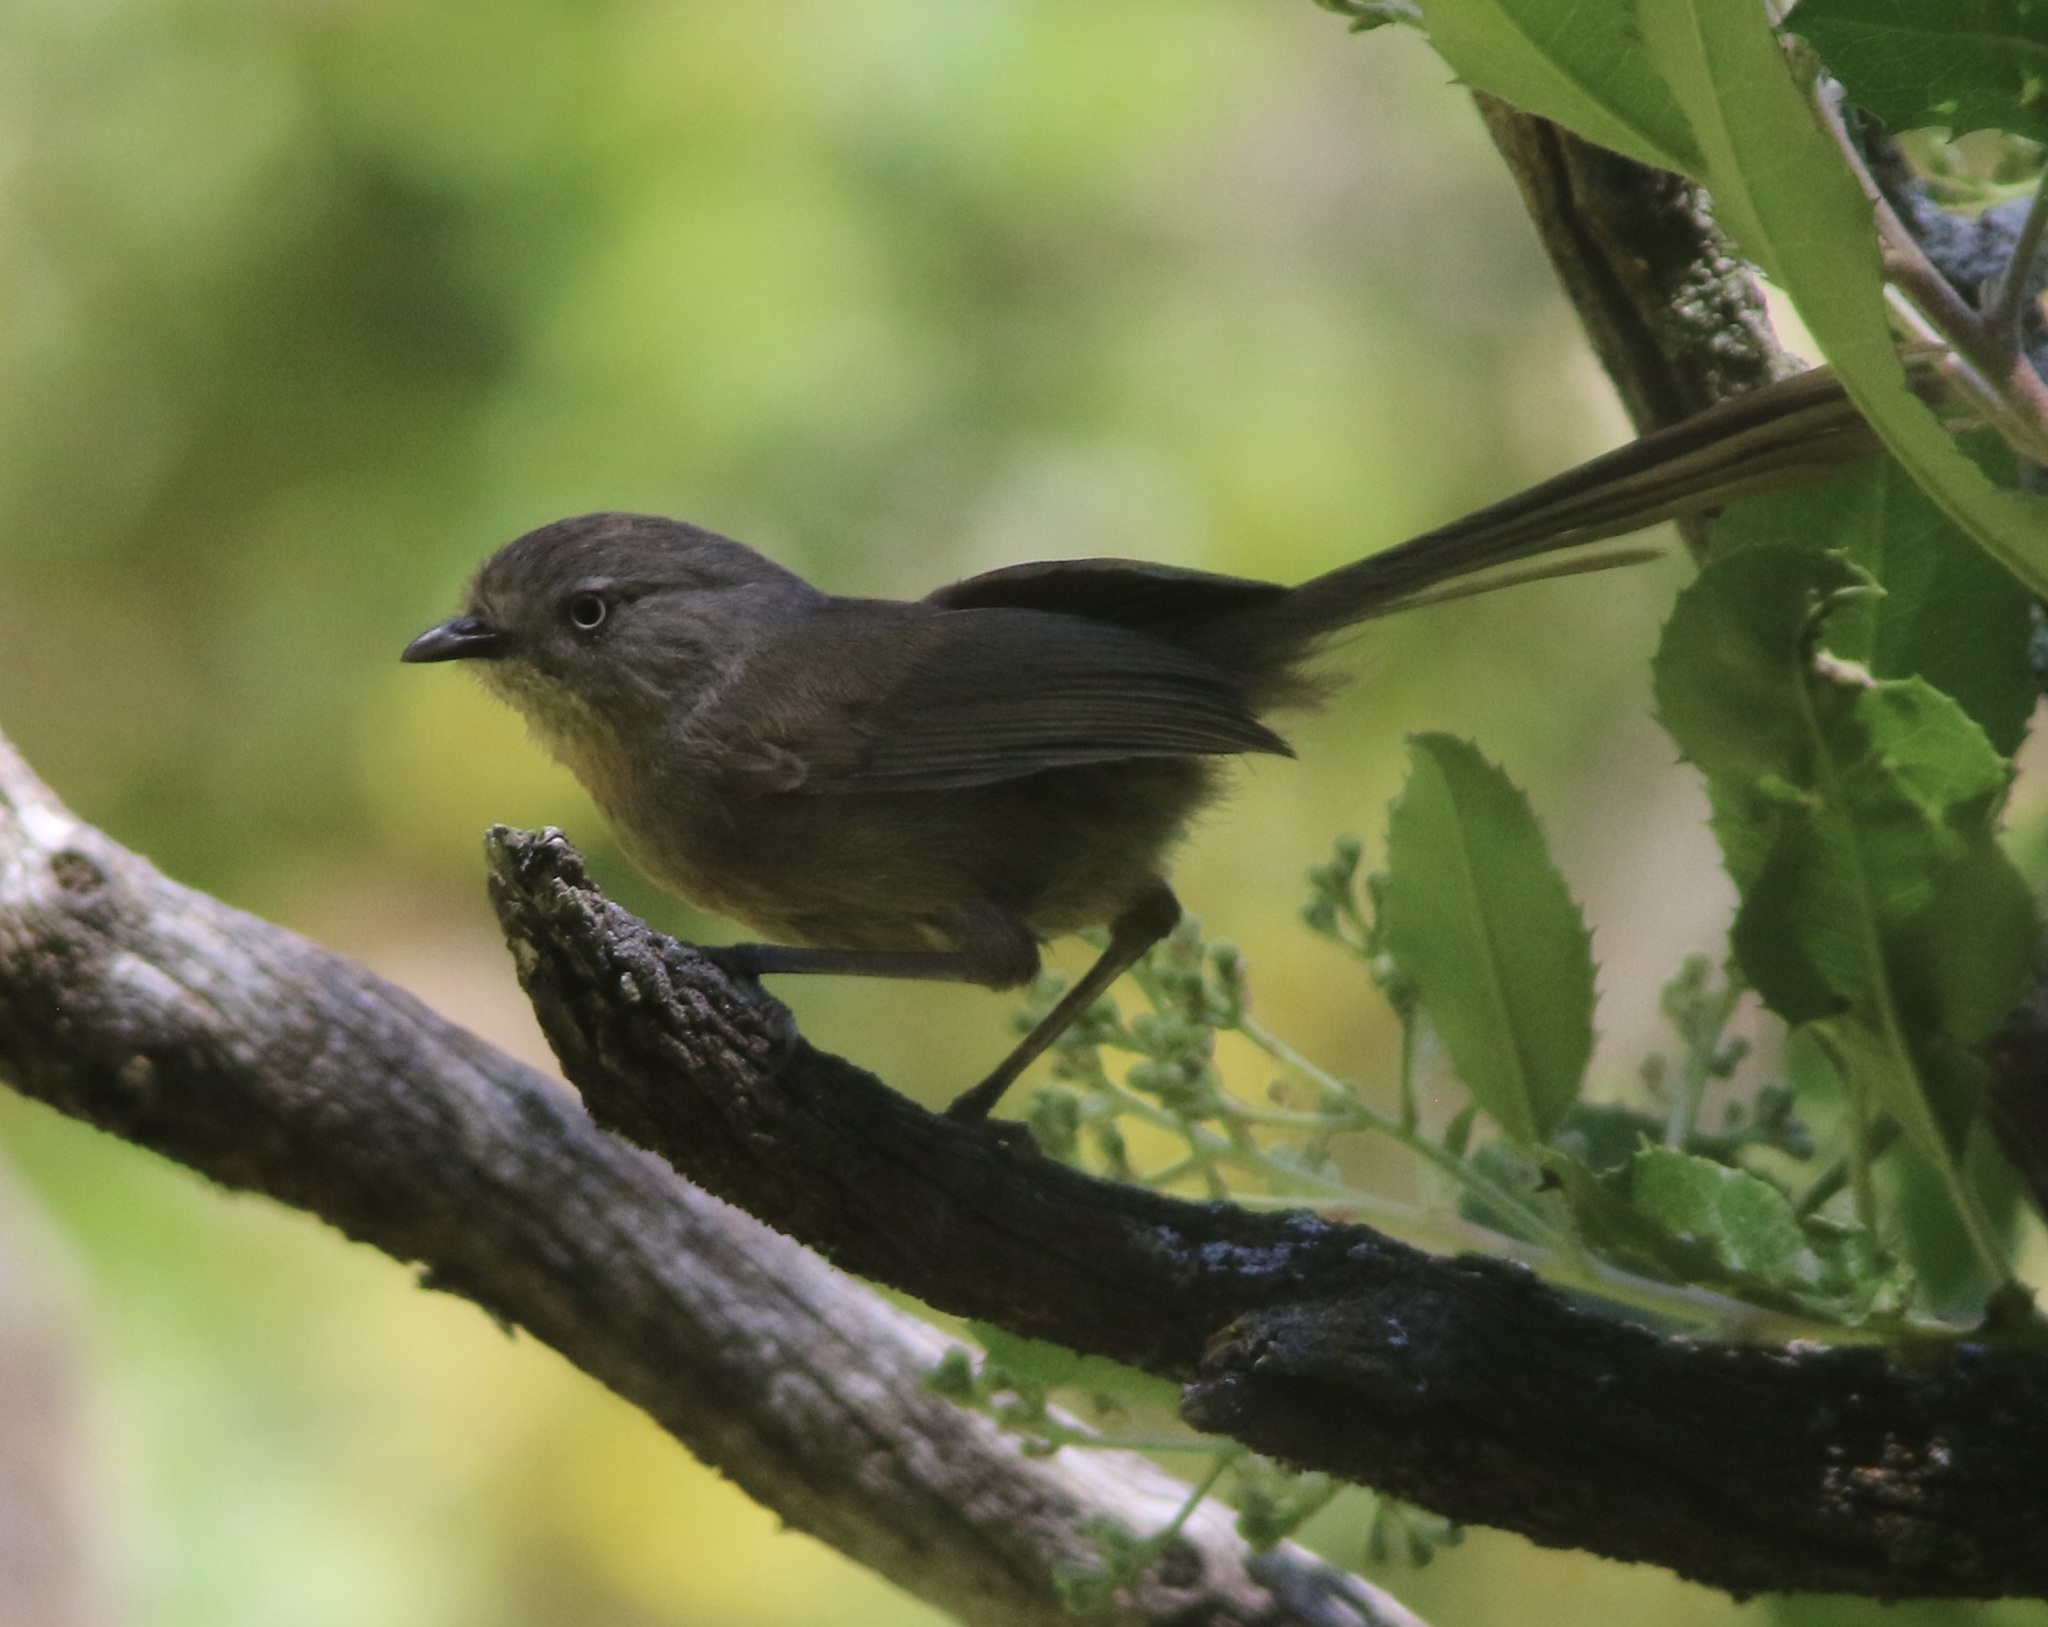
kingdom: Animalia
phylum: Chordata
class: Aves
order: Passeriformes
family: Sylviidae
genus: Chamaea
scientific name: Chamaea fasciata
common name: Wrentit
